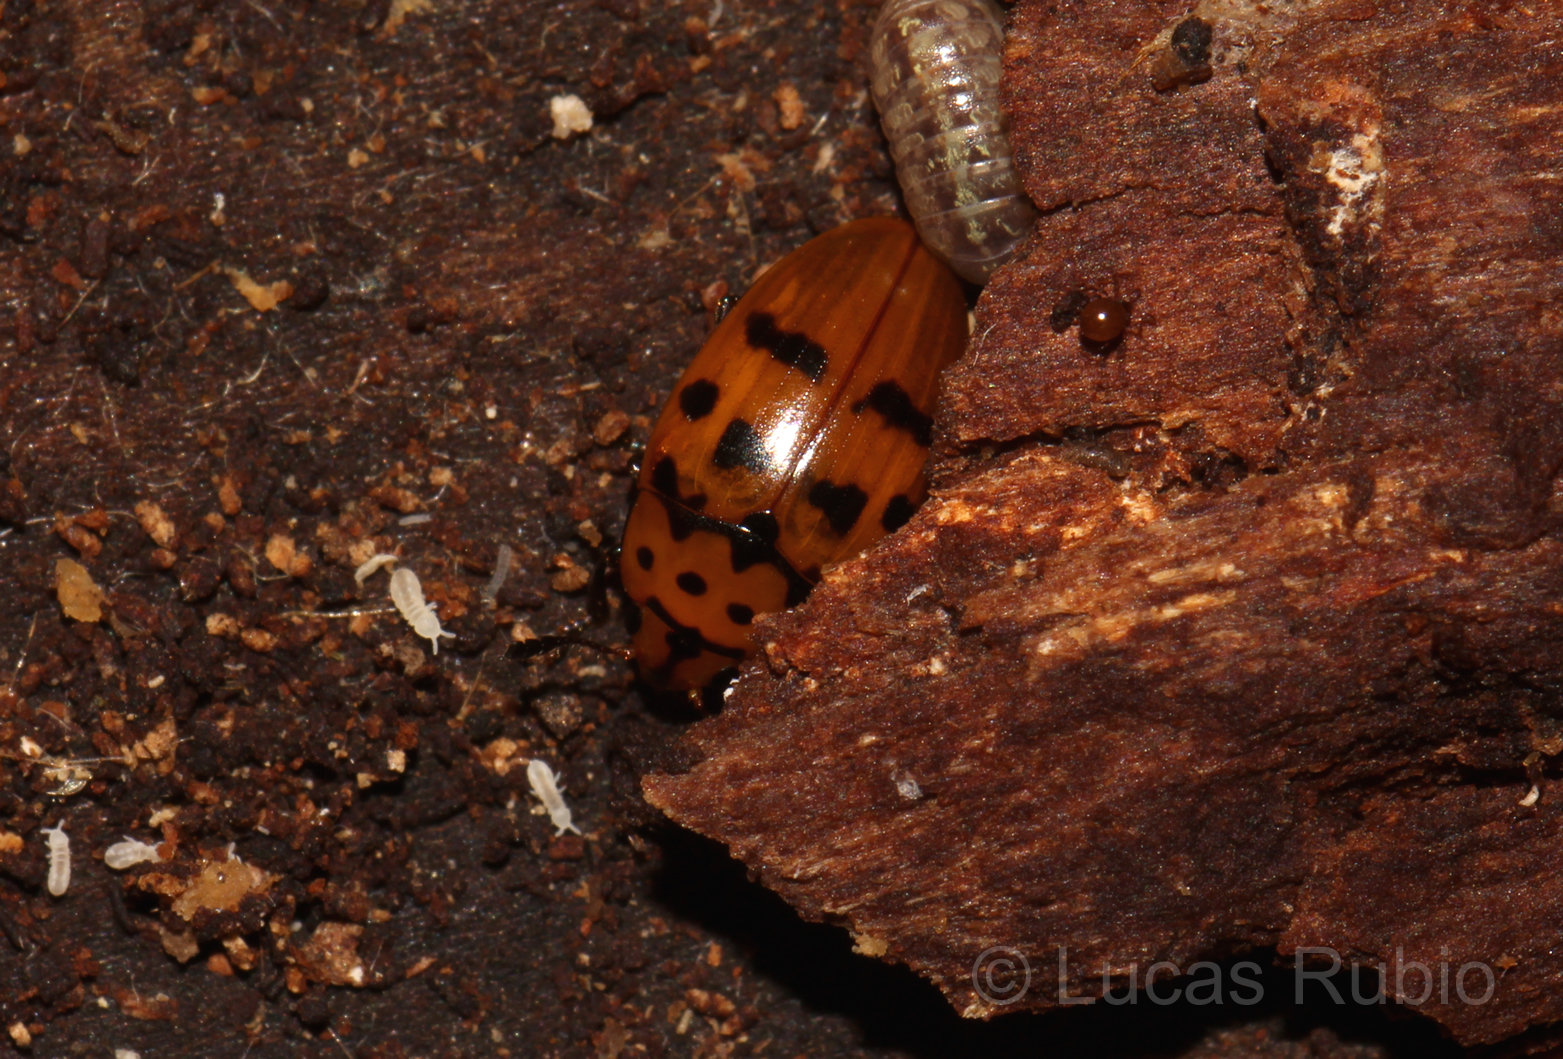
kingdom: Animalia
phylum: Arthropoda
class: Insecta
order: Coleoptera
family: Erotylidae
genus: Mycotretus
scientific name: Mycotretus ornatus
